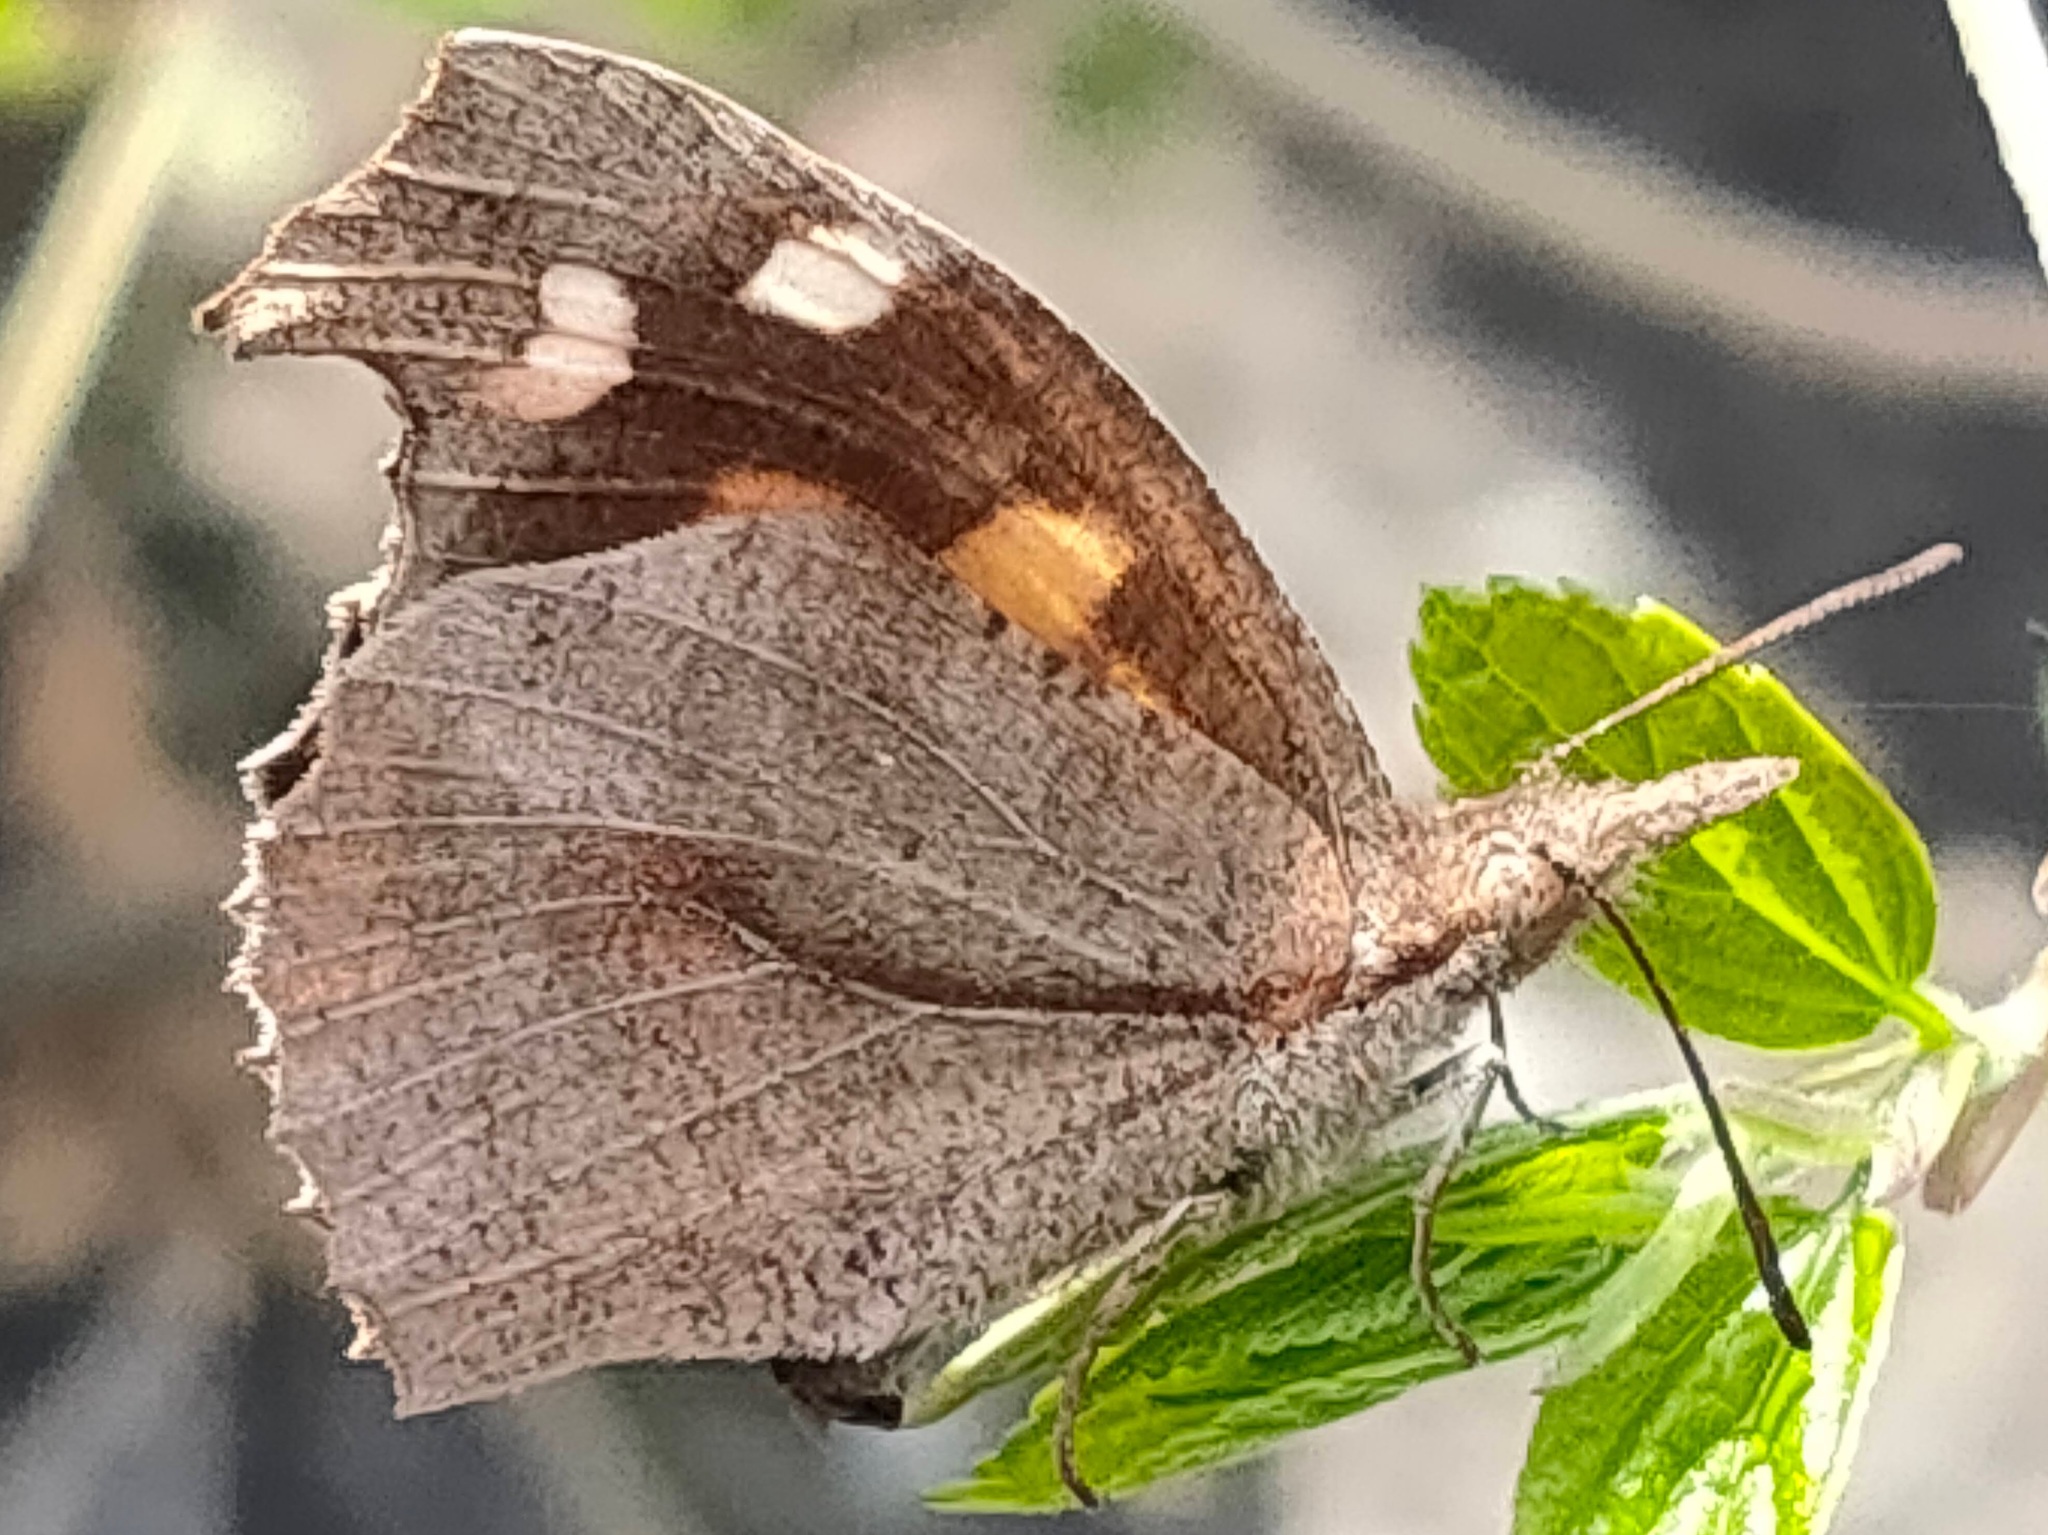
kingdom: Animalia
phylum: Arthropoda
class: Insecta
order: Lepidoptera
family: Nymphalidae
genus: Libythea
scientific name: Libythea lepita
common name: Common beak
